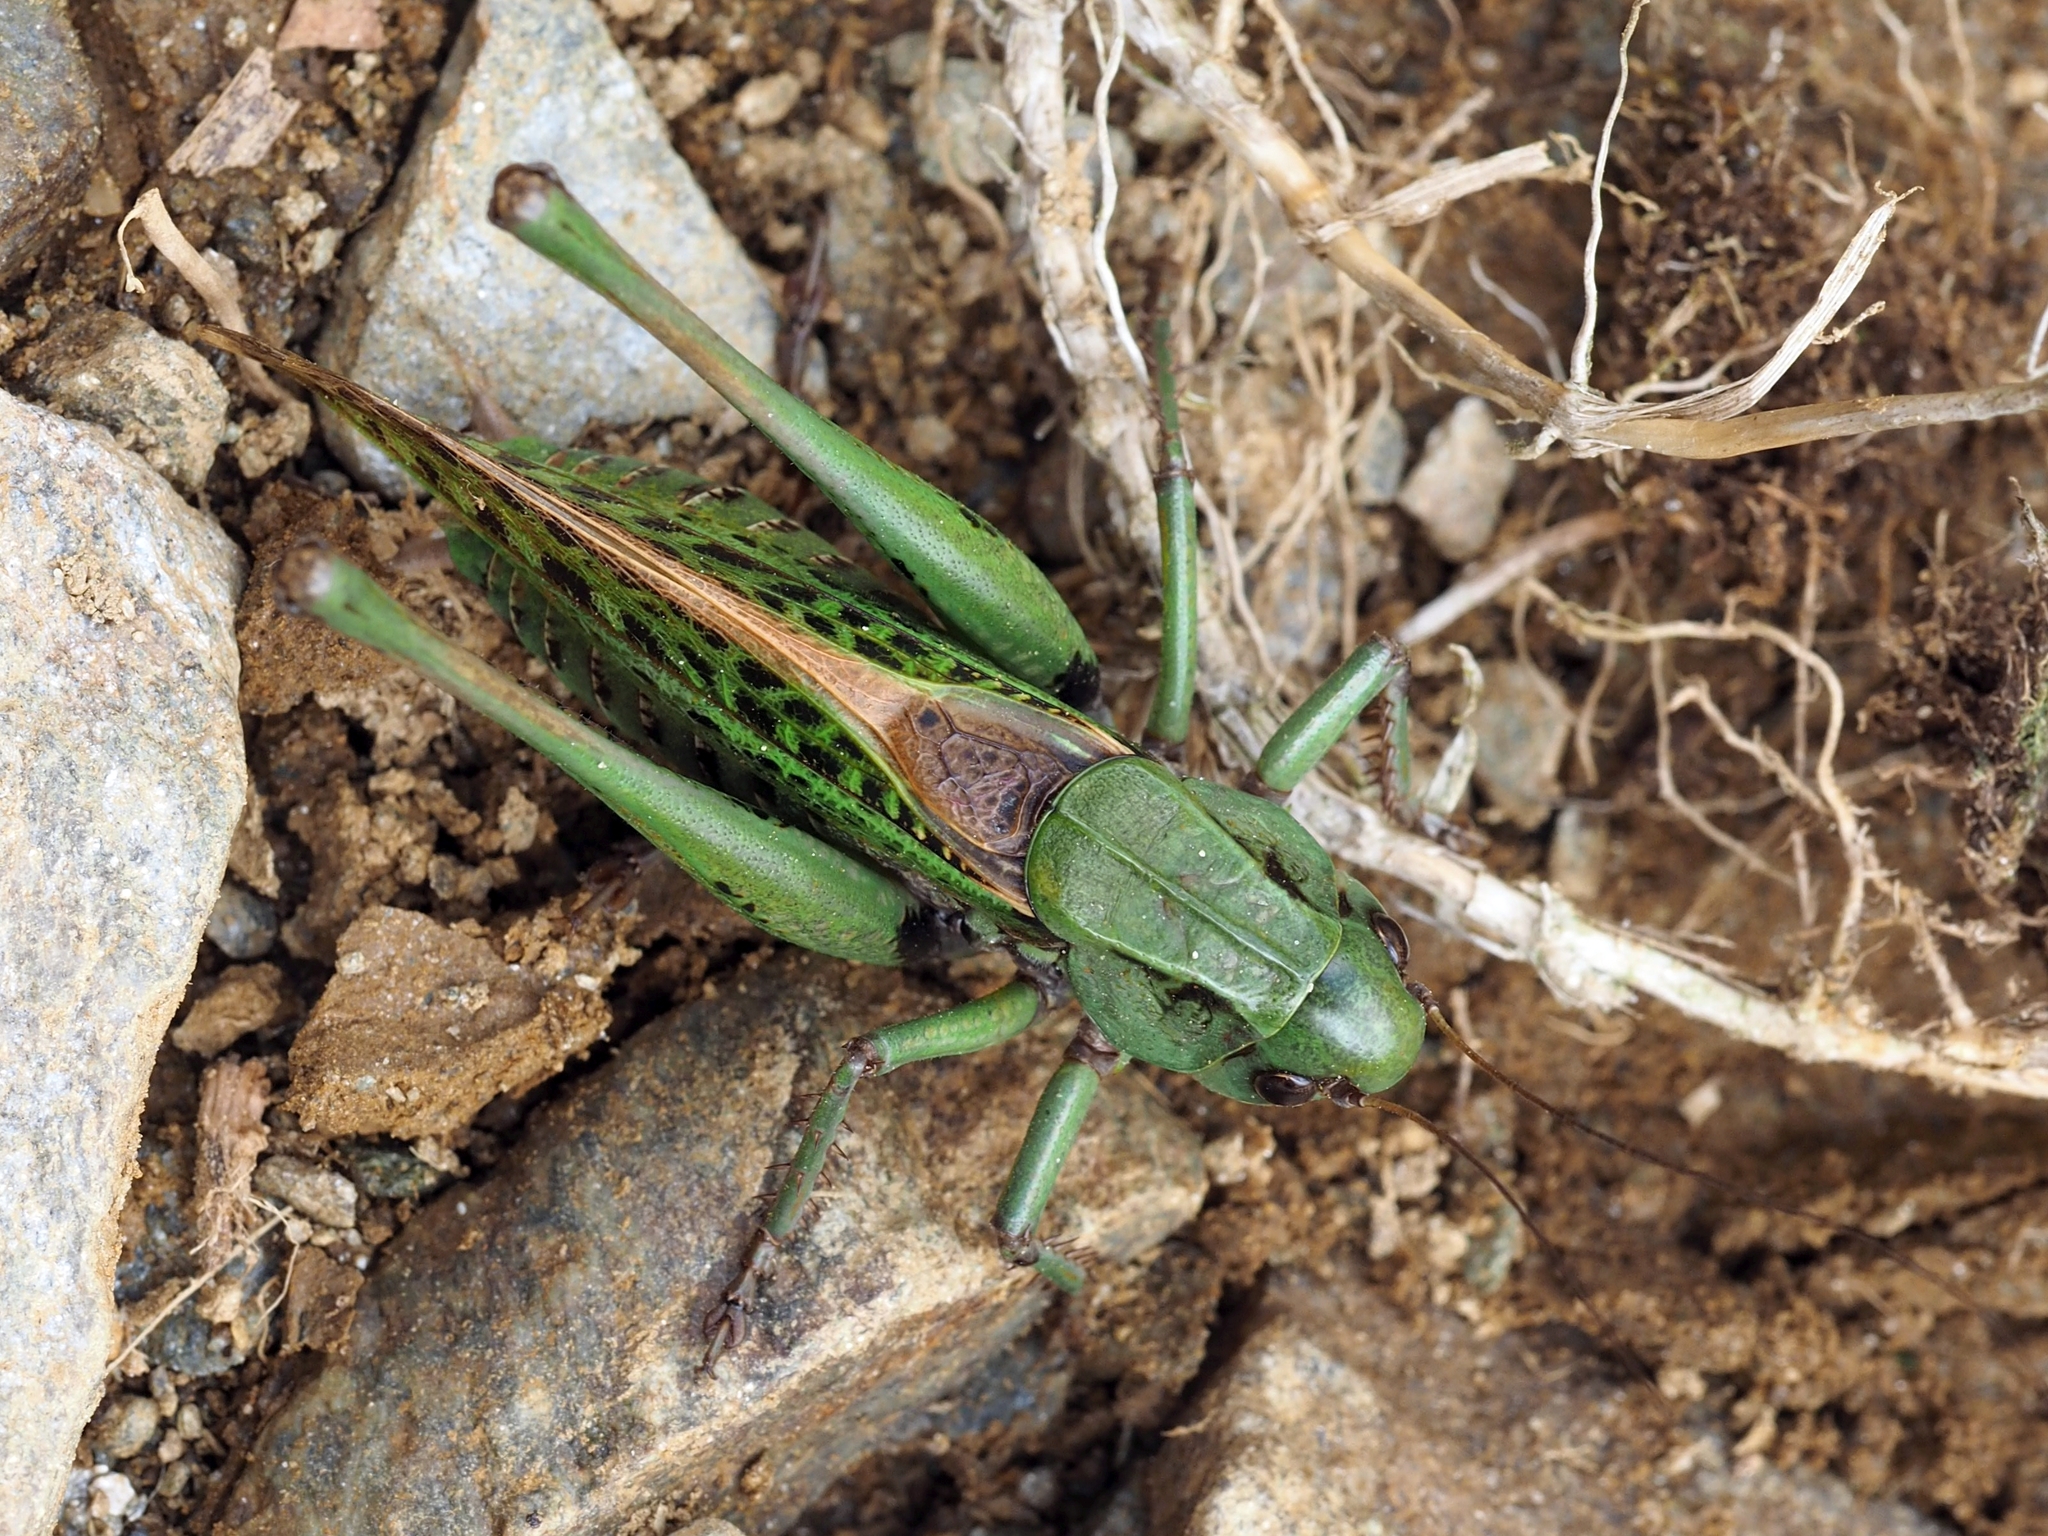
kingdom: Animalia
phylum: Arthropoda
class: Insecta
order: Orthoptera
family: Tettigoniidae
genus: Decticus
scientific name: Decticus verrucivorus
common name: Wart-biter
